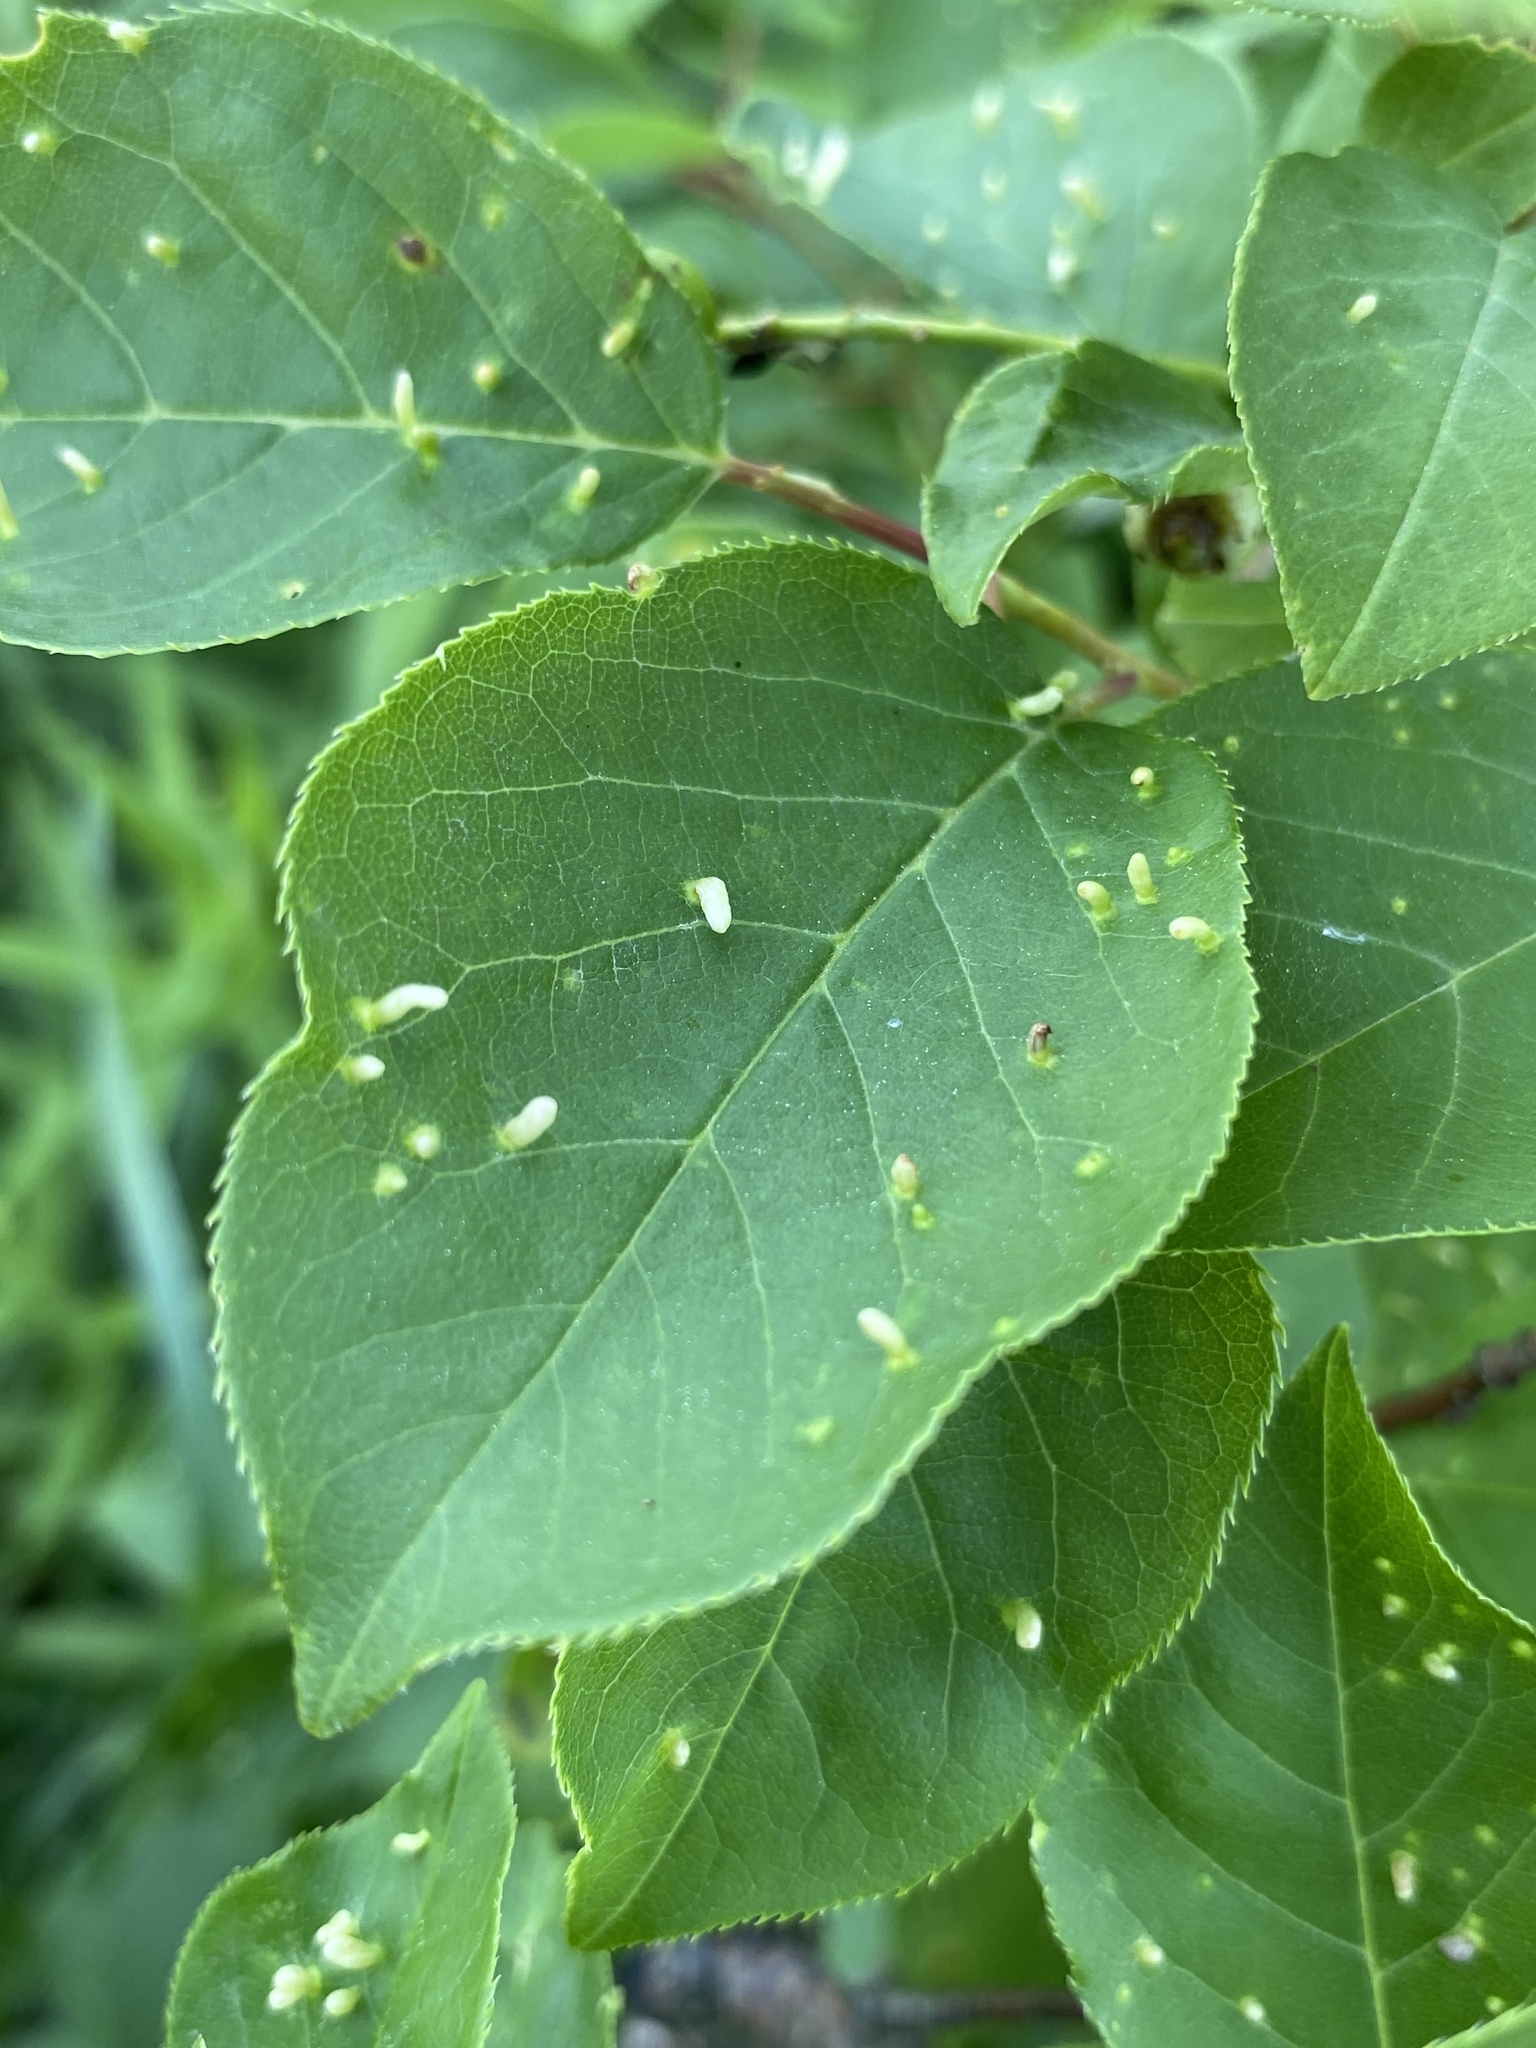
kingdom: Animalia
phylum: Arthropoda
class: Arachnida
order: Trombidiformes
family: Eriophyidae
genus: Eriophyes
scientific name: Eriophyes emarginatae
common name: Plum leaf gall mite
